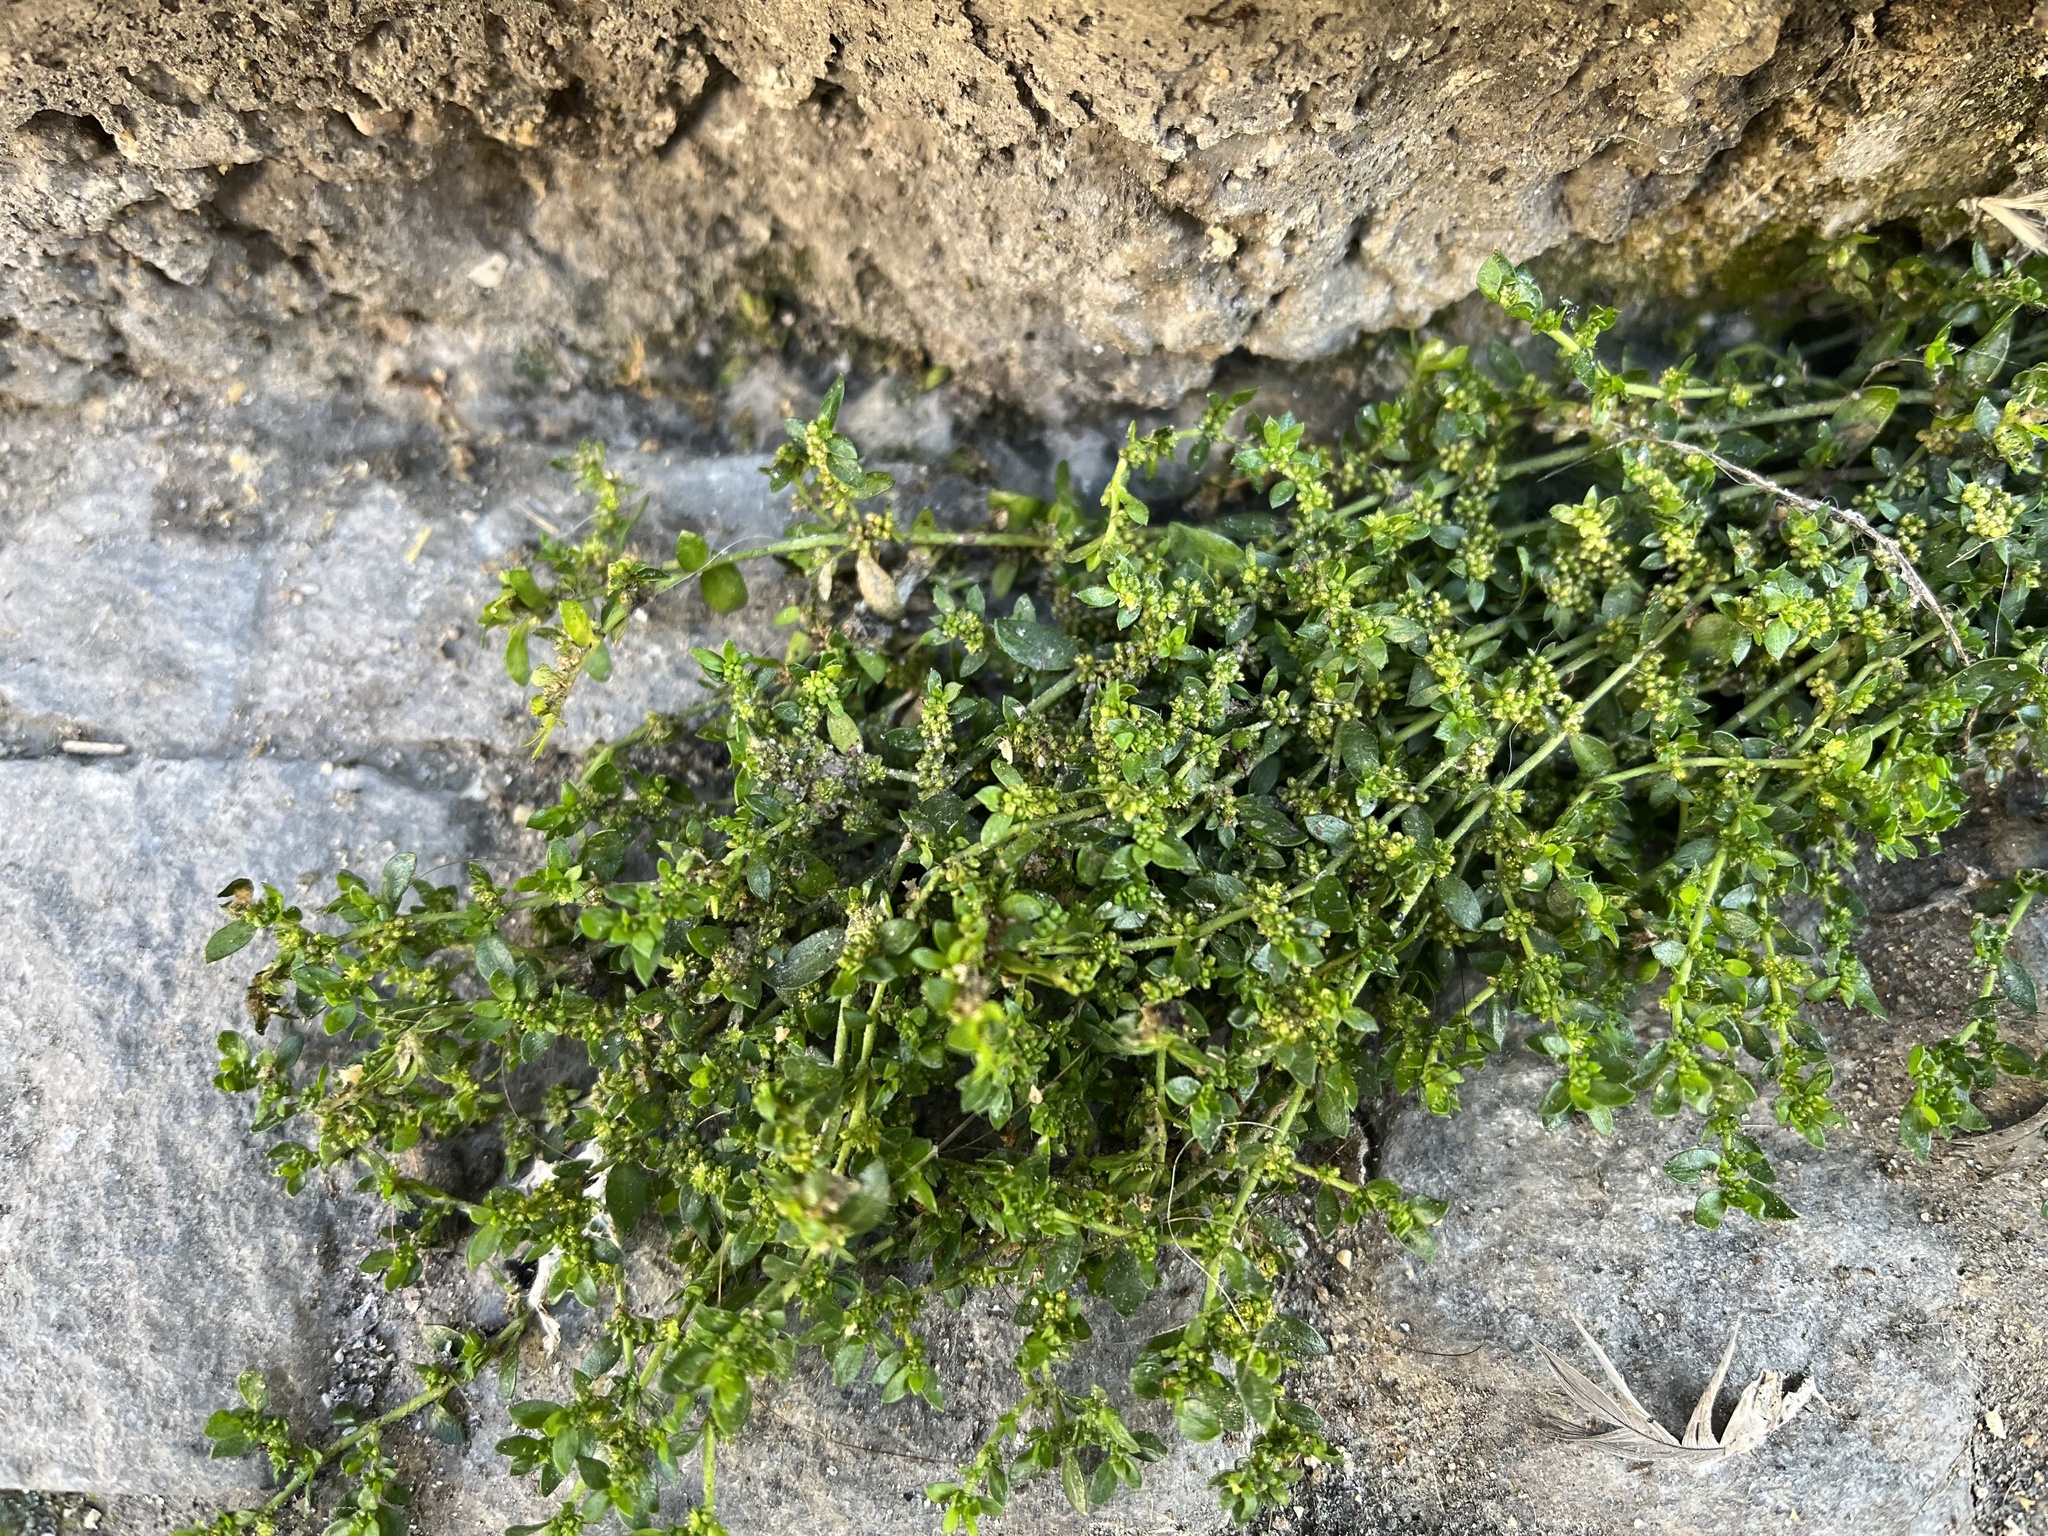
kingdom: Plantae
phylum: Tracheophyta
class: Magnoliopsida
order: Caryophyllales
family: Caryophyllaceae
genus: Herniaria
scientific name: Herniaria glabra
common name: Smooth rupturewort
